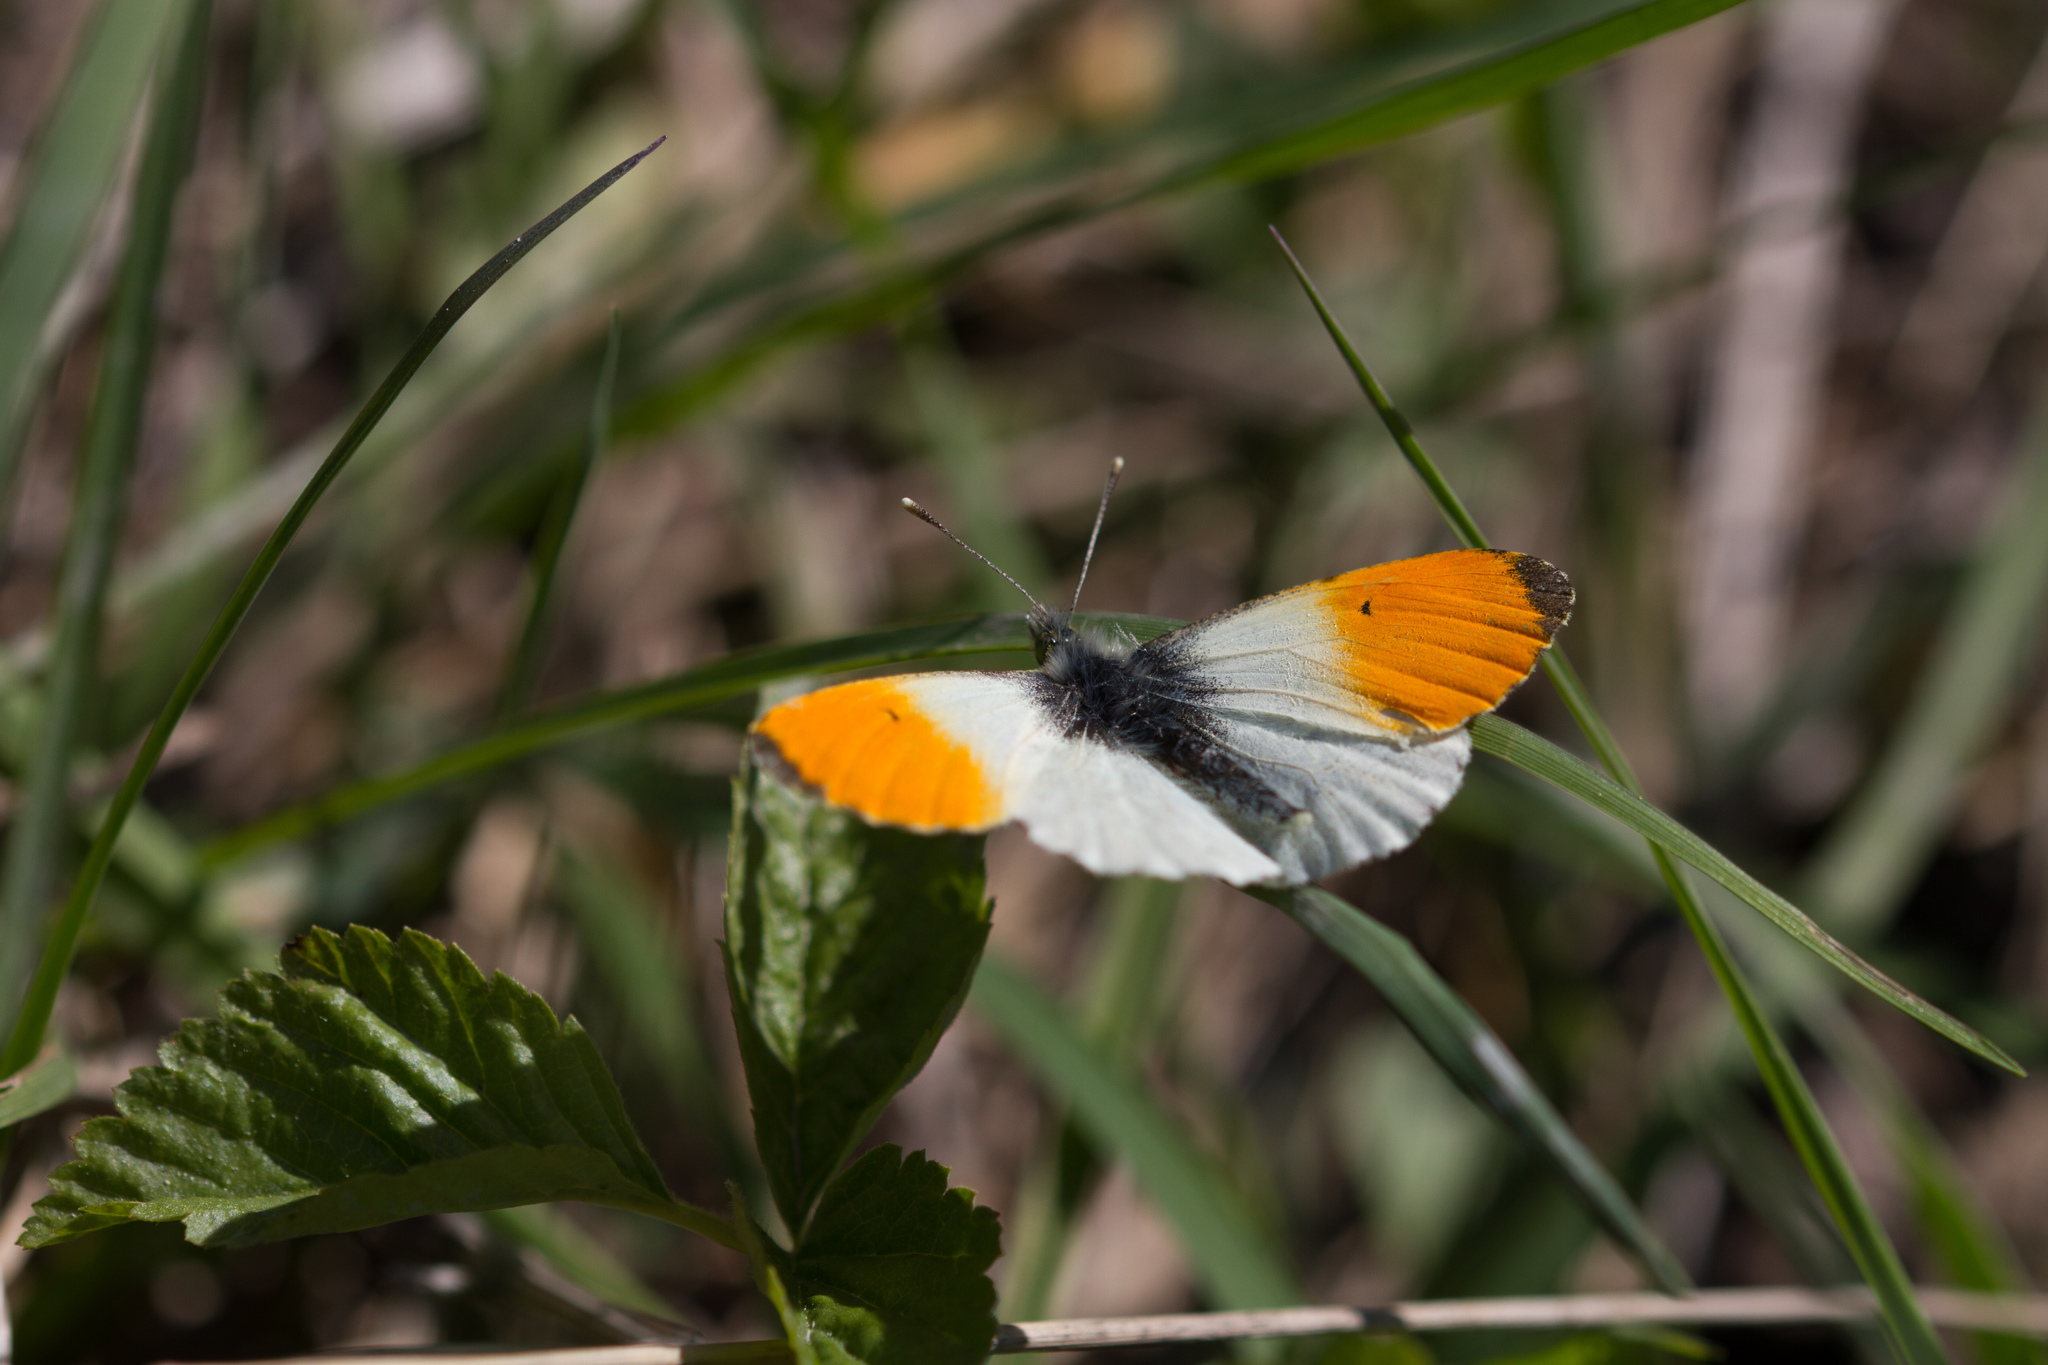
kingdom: Animalia
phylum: Arthropoda
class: Insecta
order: Lepidoptera
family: Pieridae
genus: Anthocharis
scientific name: Anthocharis cardamines
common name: Orange-tip
